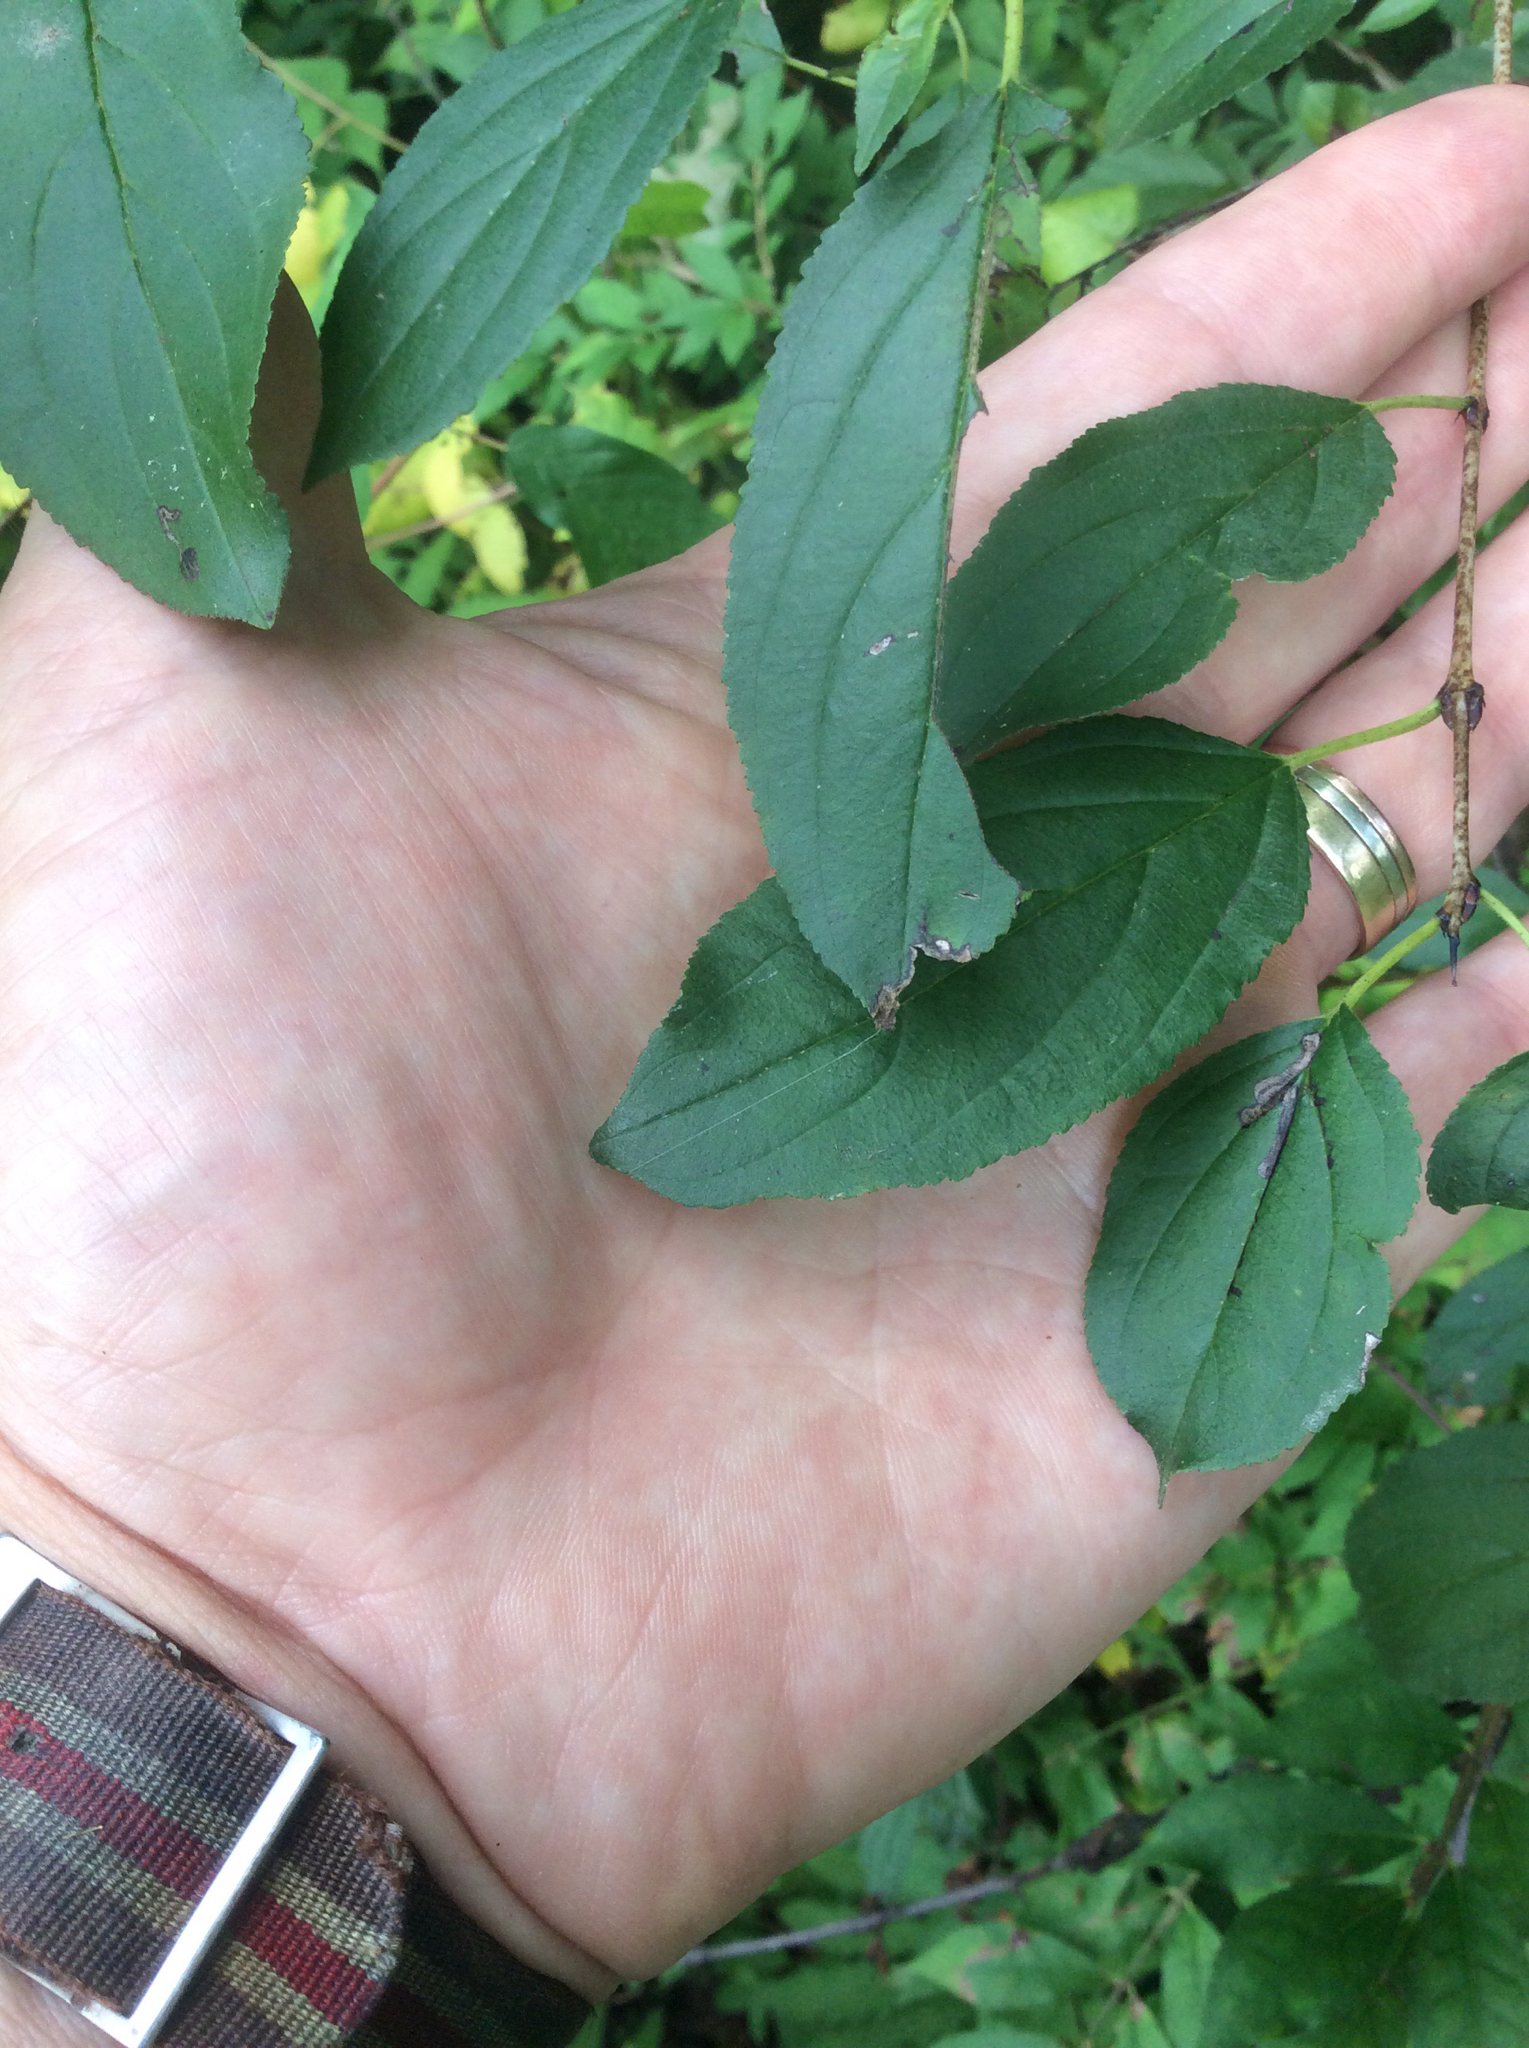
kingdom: Plantae
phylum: Tracheophyta
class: Magnoliopsida
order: Rosales
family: Rhamnaceae
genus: Rhamnus
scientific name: Rhamnus cathartica
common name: Common buckthorn
